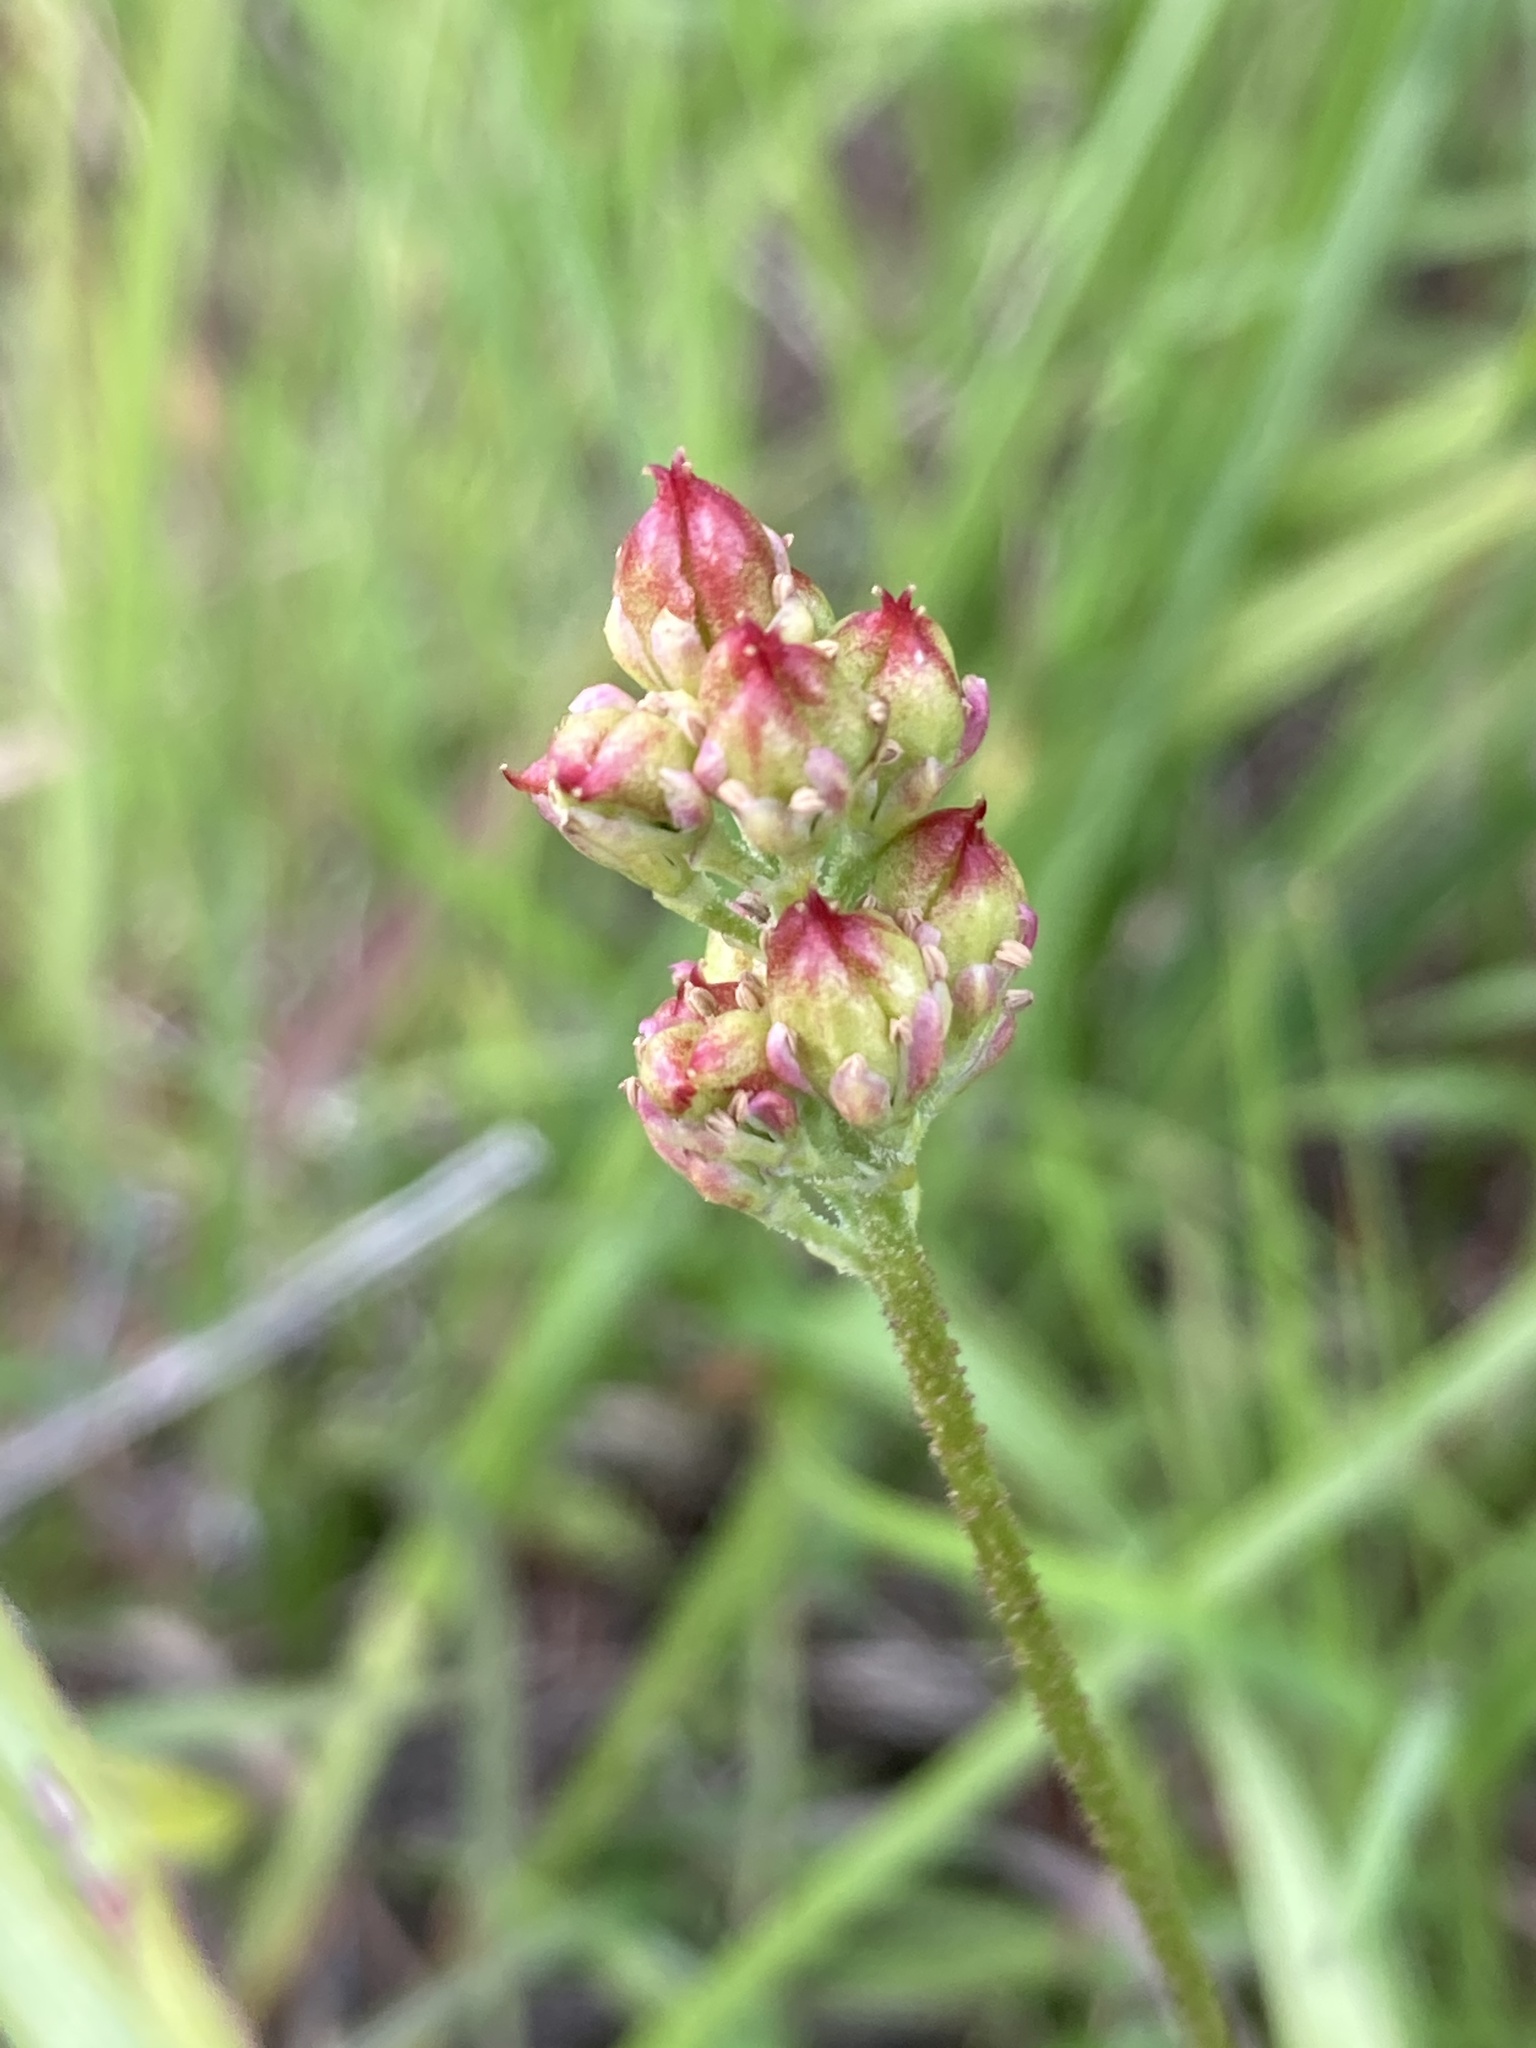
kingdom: Plantae
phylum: Tracheophyta
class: Liliopsida
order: Alismatales
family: Tofieldiaceae
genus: Triantha
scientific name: Triantha glutinosa
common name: Glutinous tofieldia
